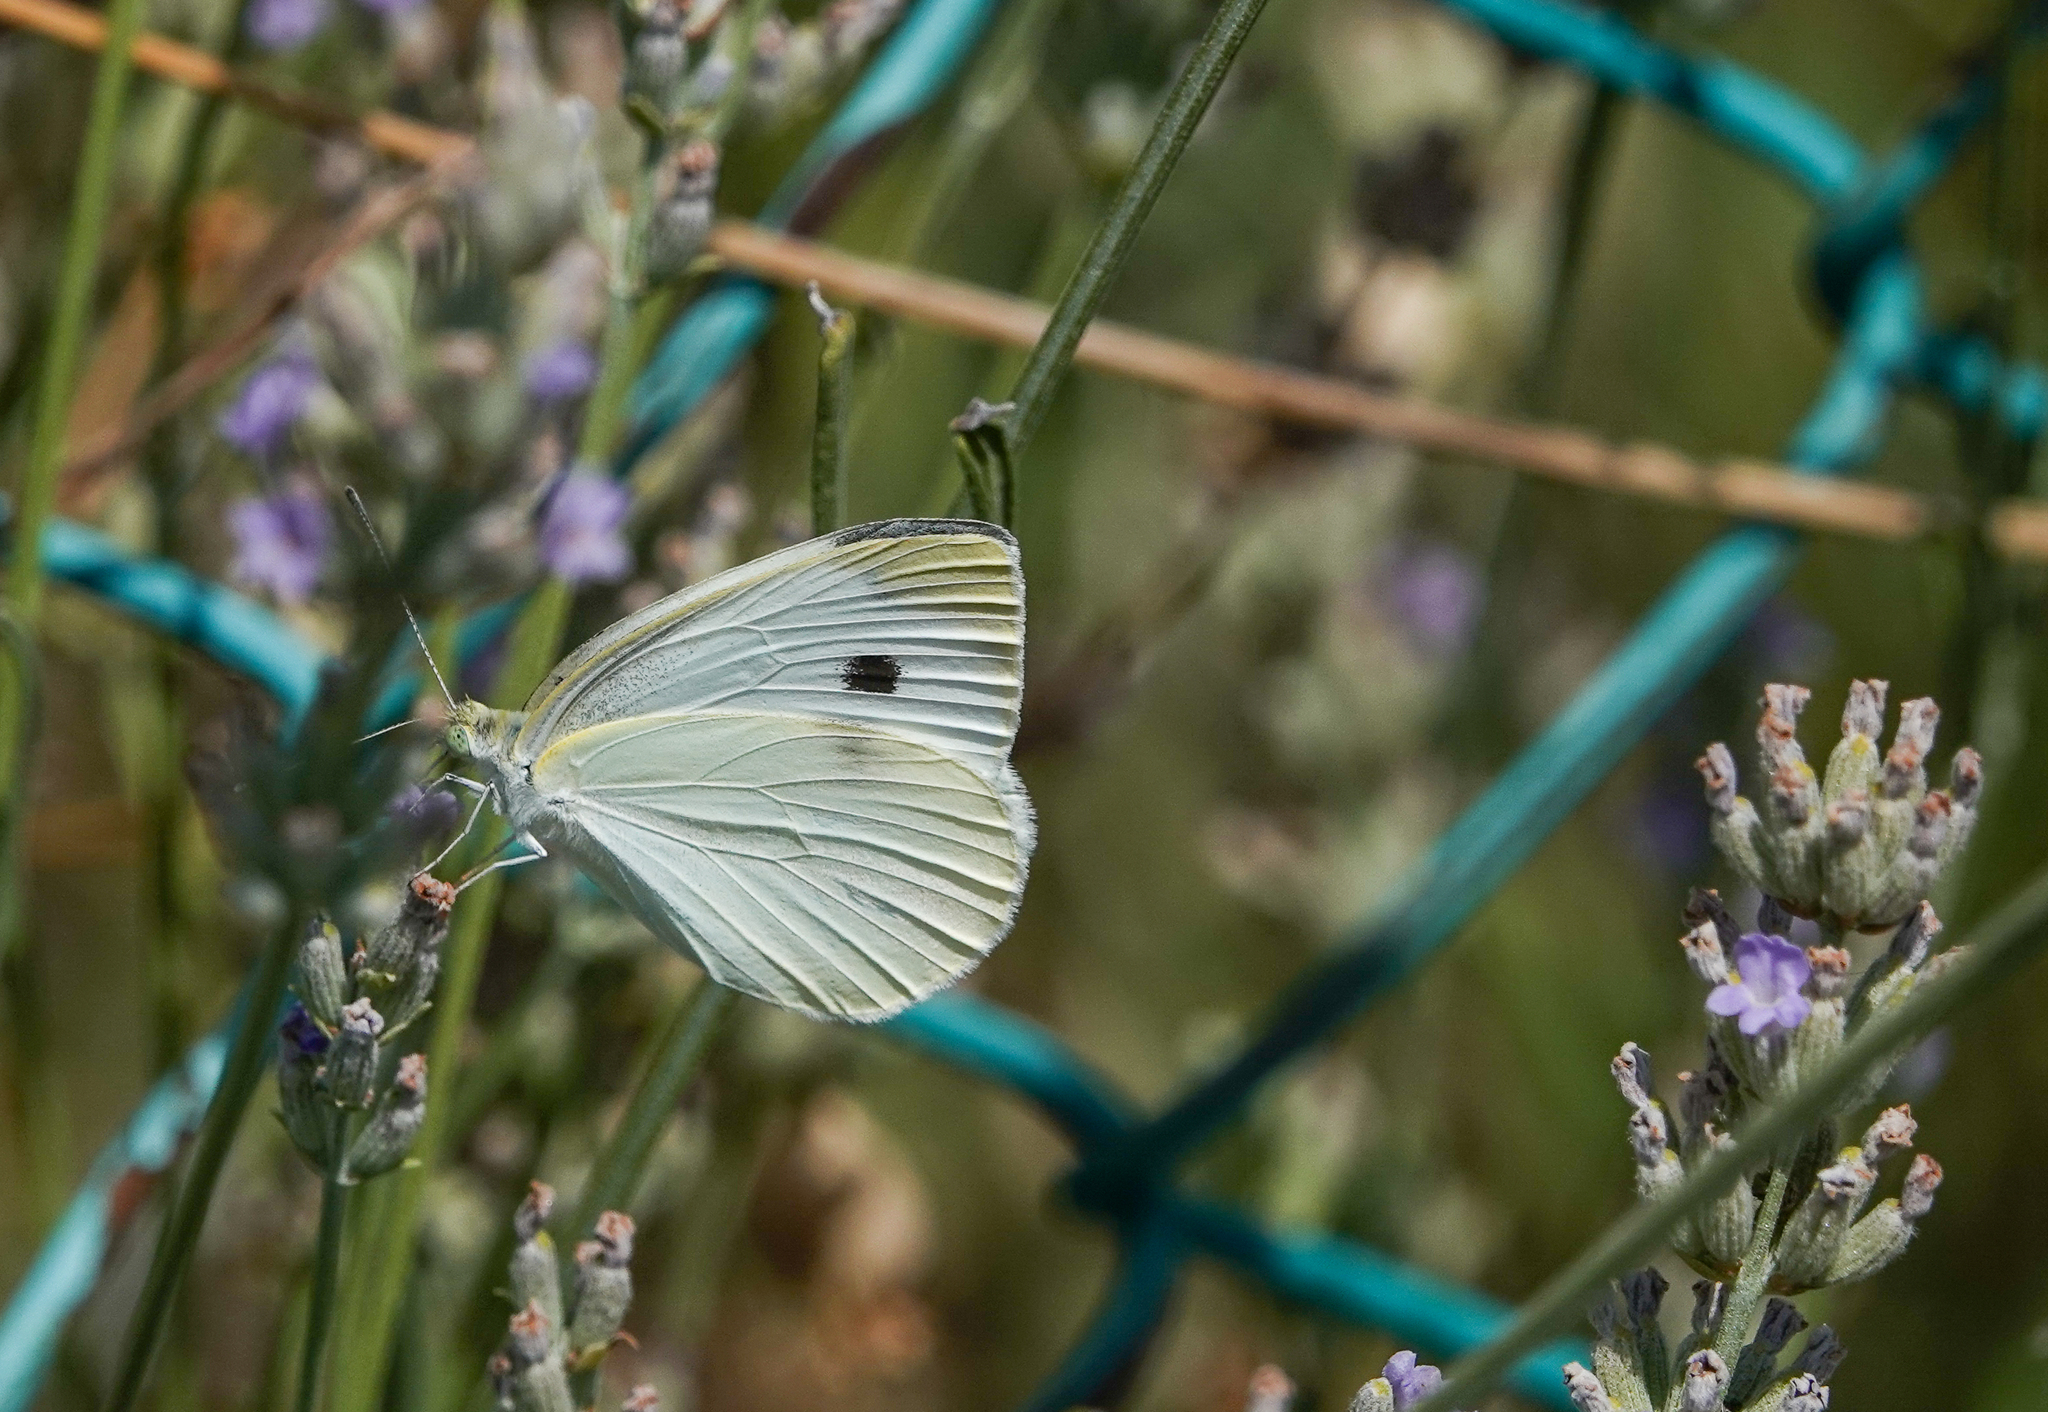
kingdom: Animalia
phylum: Arthropoda
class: Insecta
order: Lepidoptera
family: Pieridae
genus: Pieris
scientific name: Pieris rapae
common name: Small white
